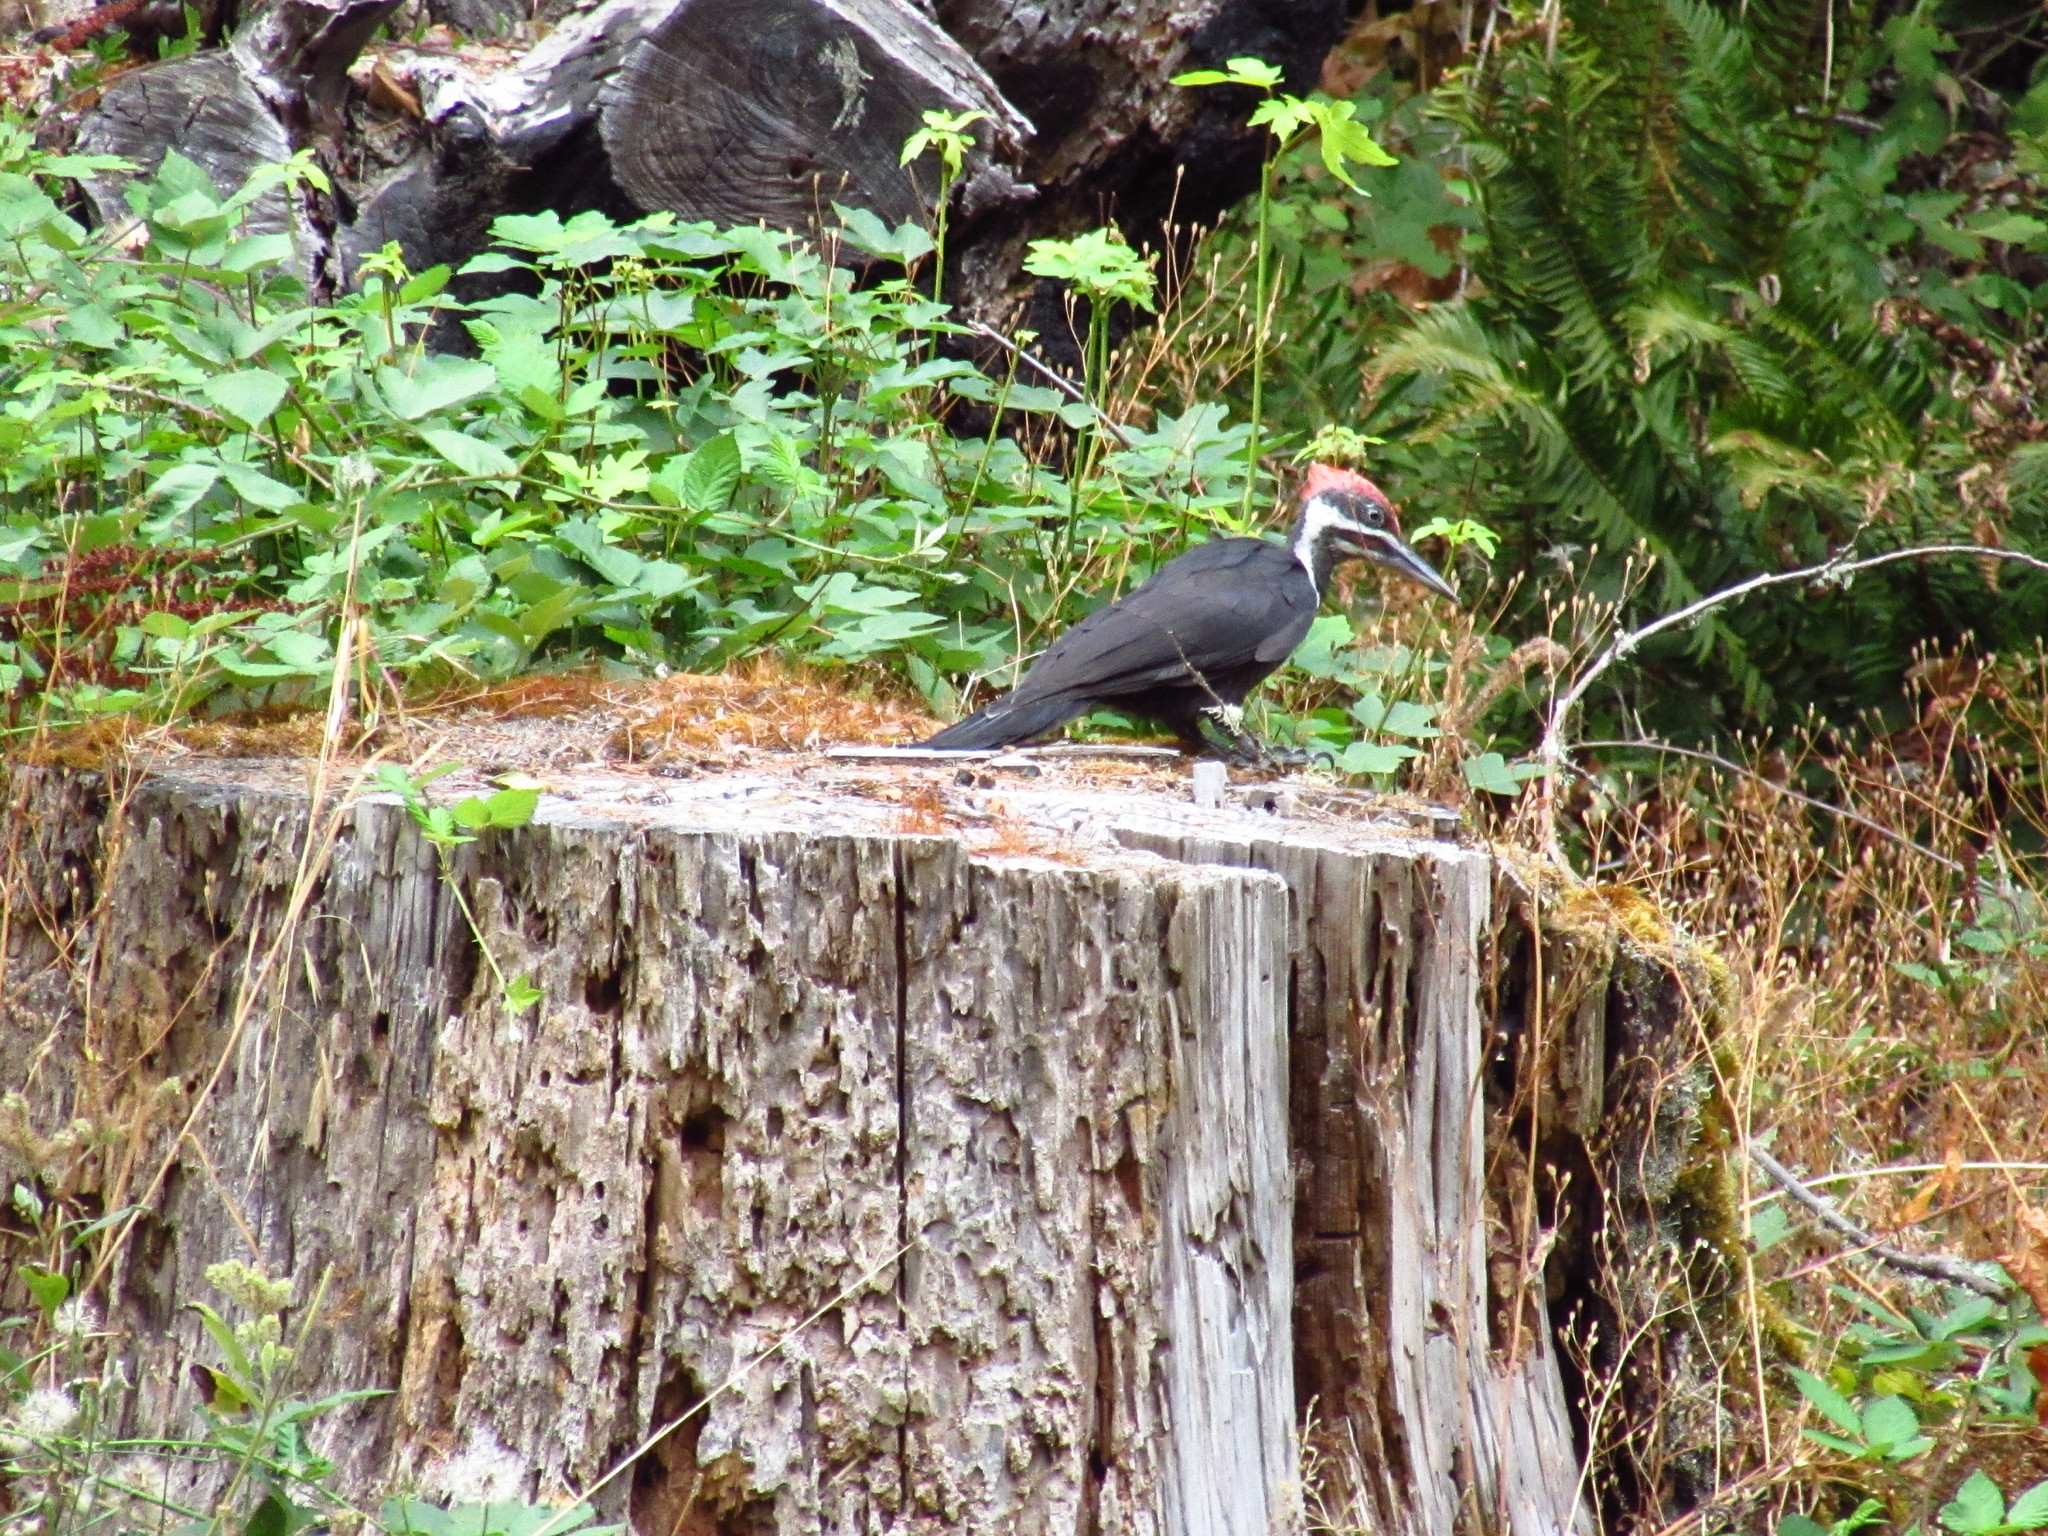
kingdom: Animalia
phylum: Chordata
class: Aves
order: Piciformes
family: Picidae
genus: Dryocopus
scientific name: Dryocopus pileatus
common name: Pileated woodpecker
